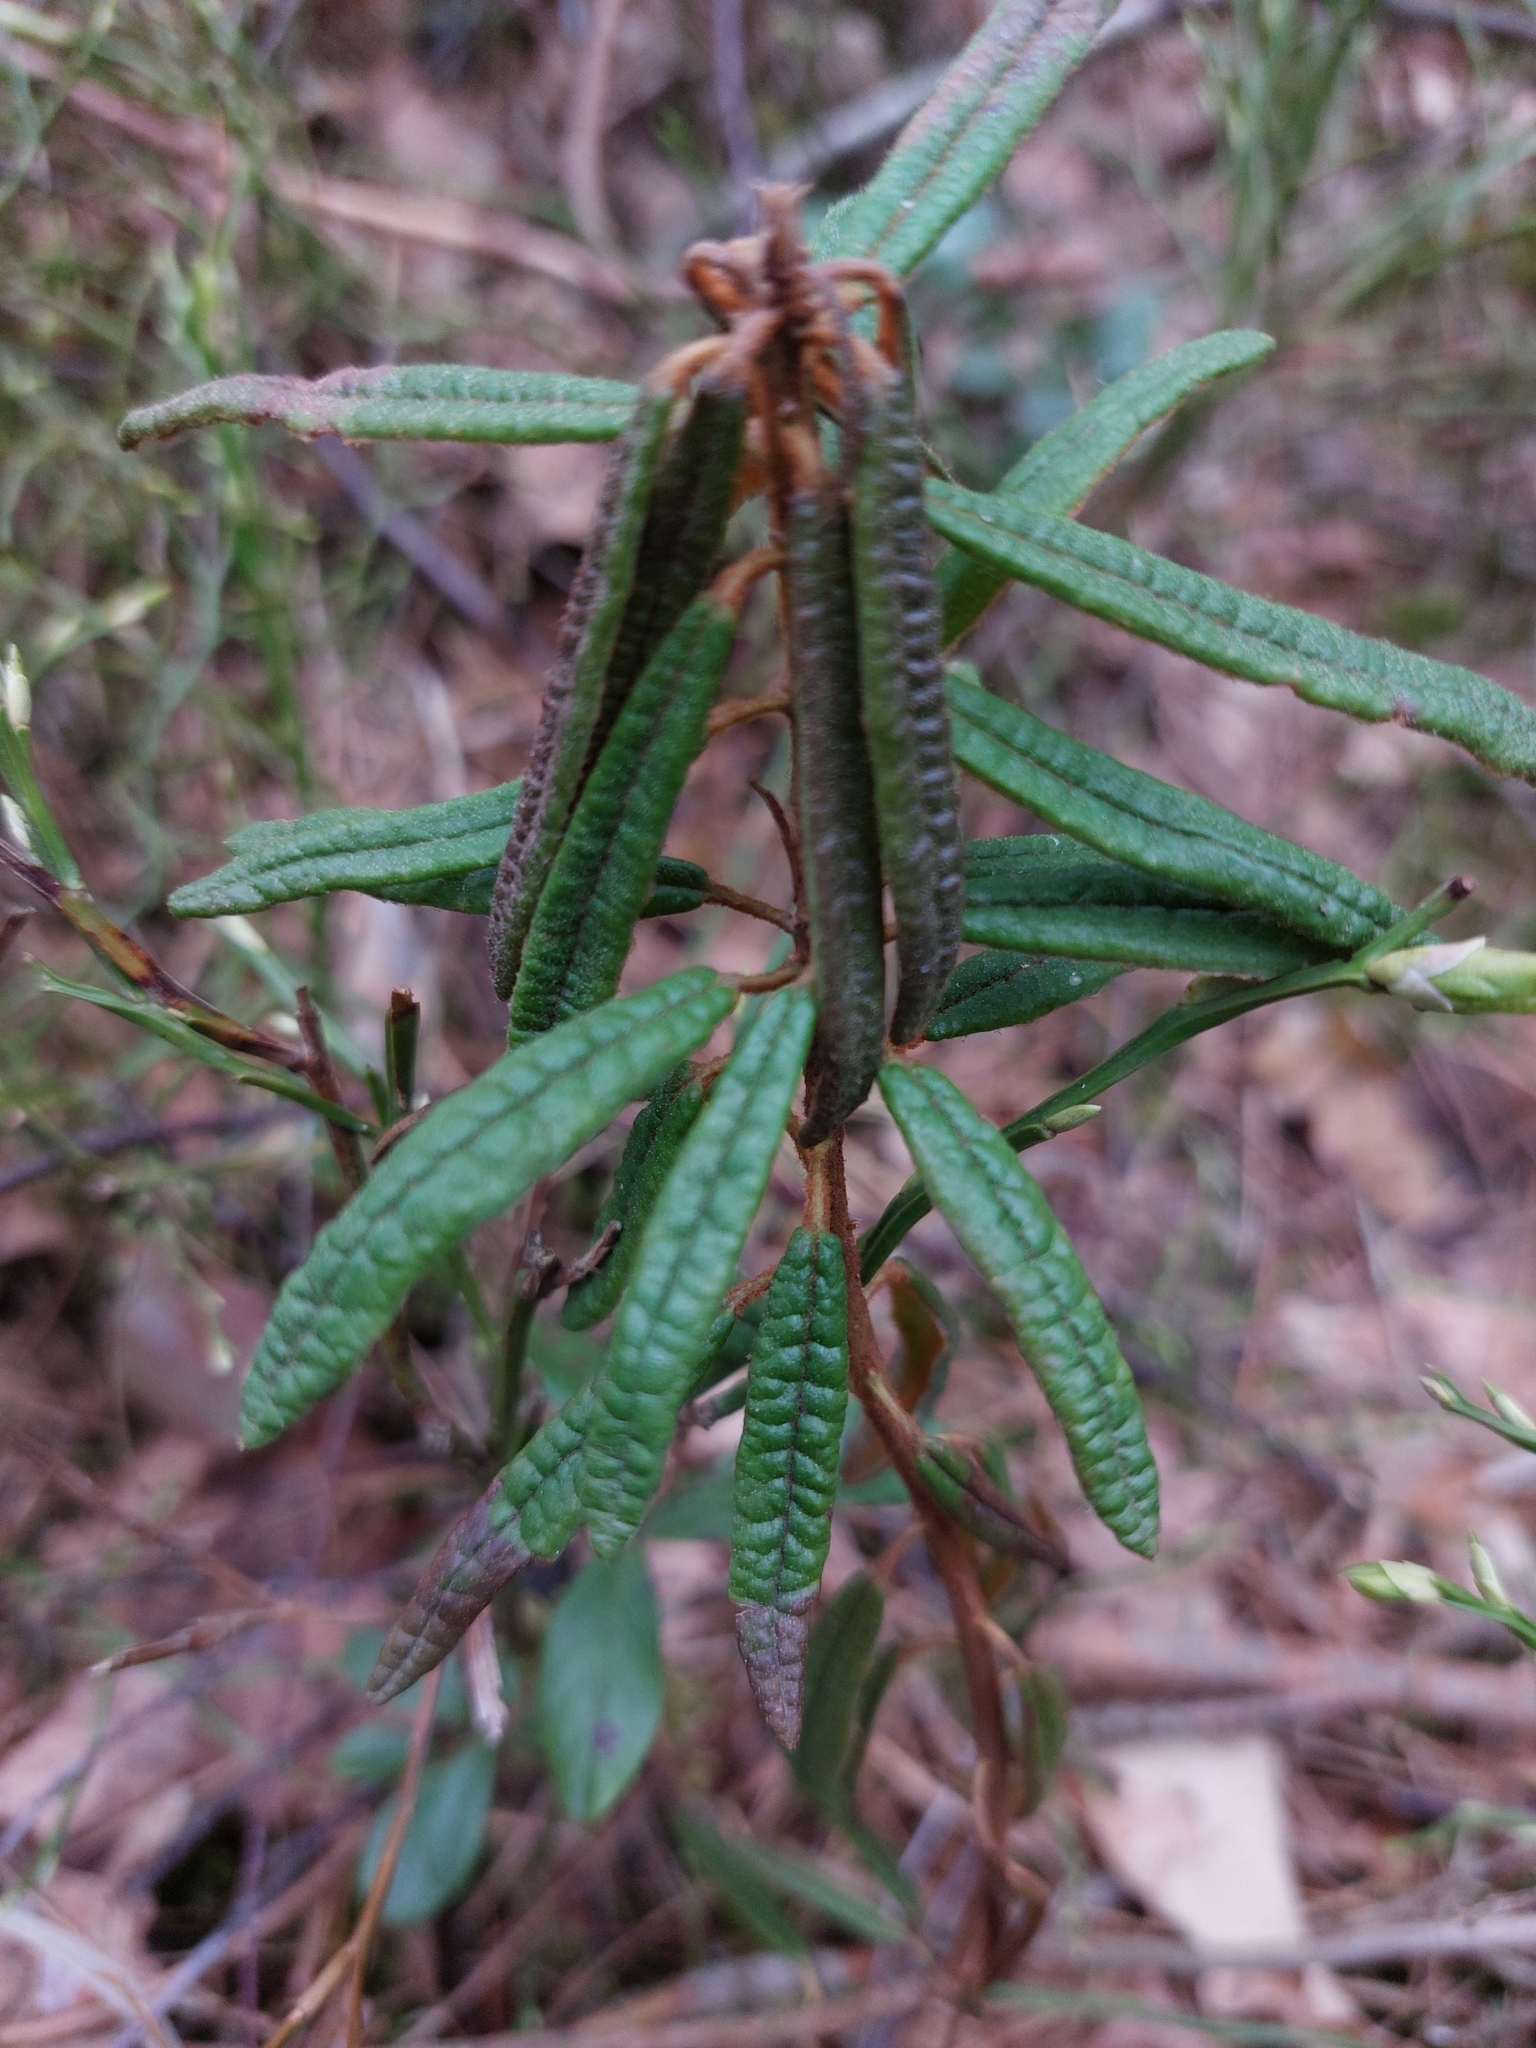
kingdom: Plantae
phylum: Tracheophyta
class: Magnoliopsida
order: Ericales
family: Ericaceae
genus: Rhododendron
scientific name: Rhododendron tomentosum
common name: Marsh labrador tea
